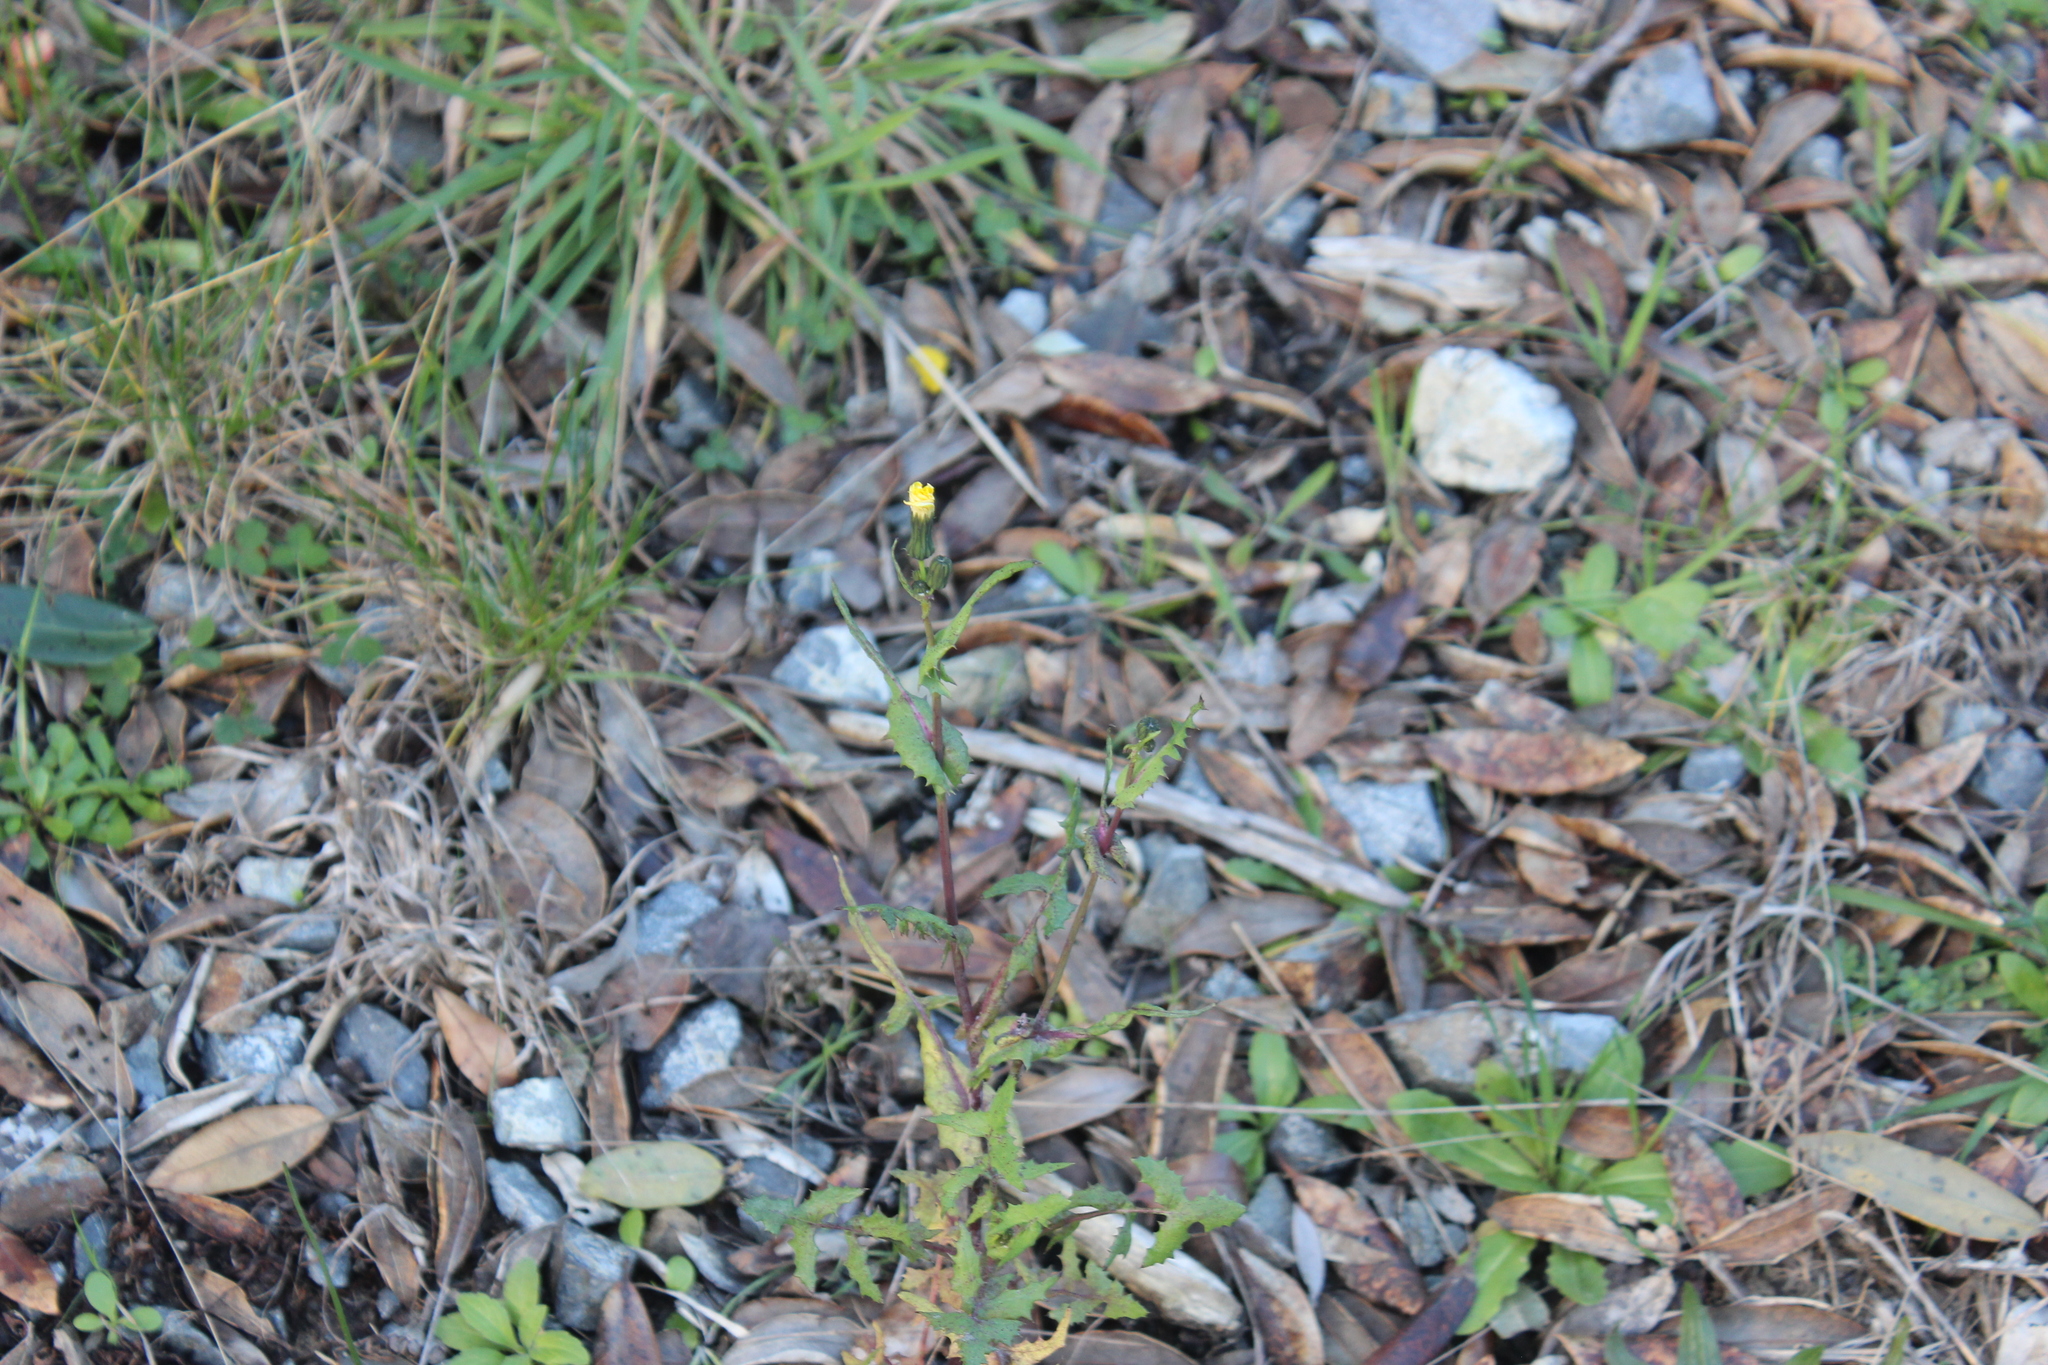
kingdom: Plantae
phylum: Tracheophyta
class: Magnoliopsida
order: Asterales
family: Asteraceae
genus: Sonchus
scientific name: Sonchus oleraceus
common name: Common sowthistle
